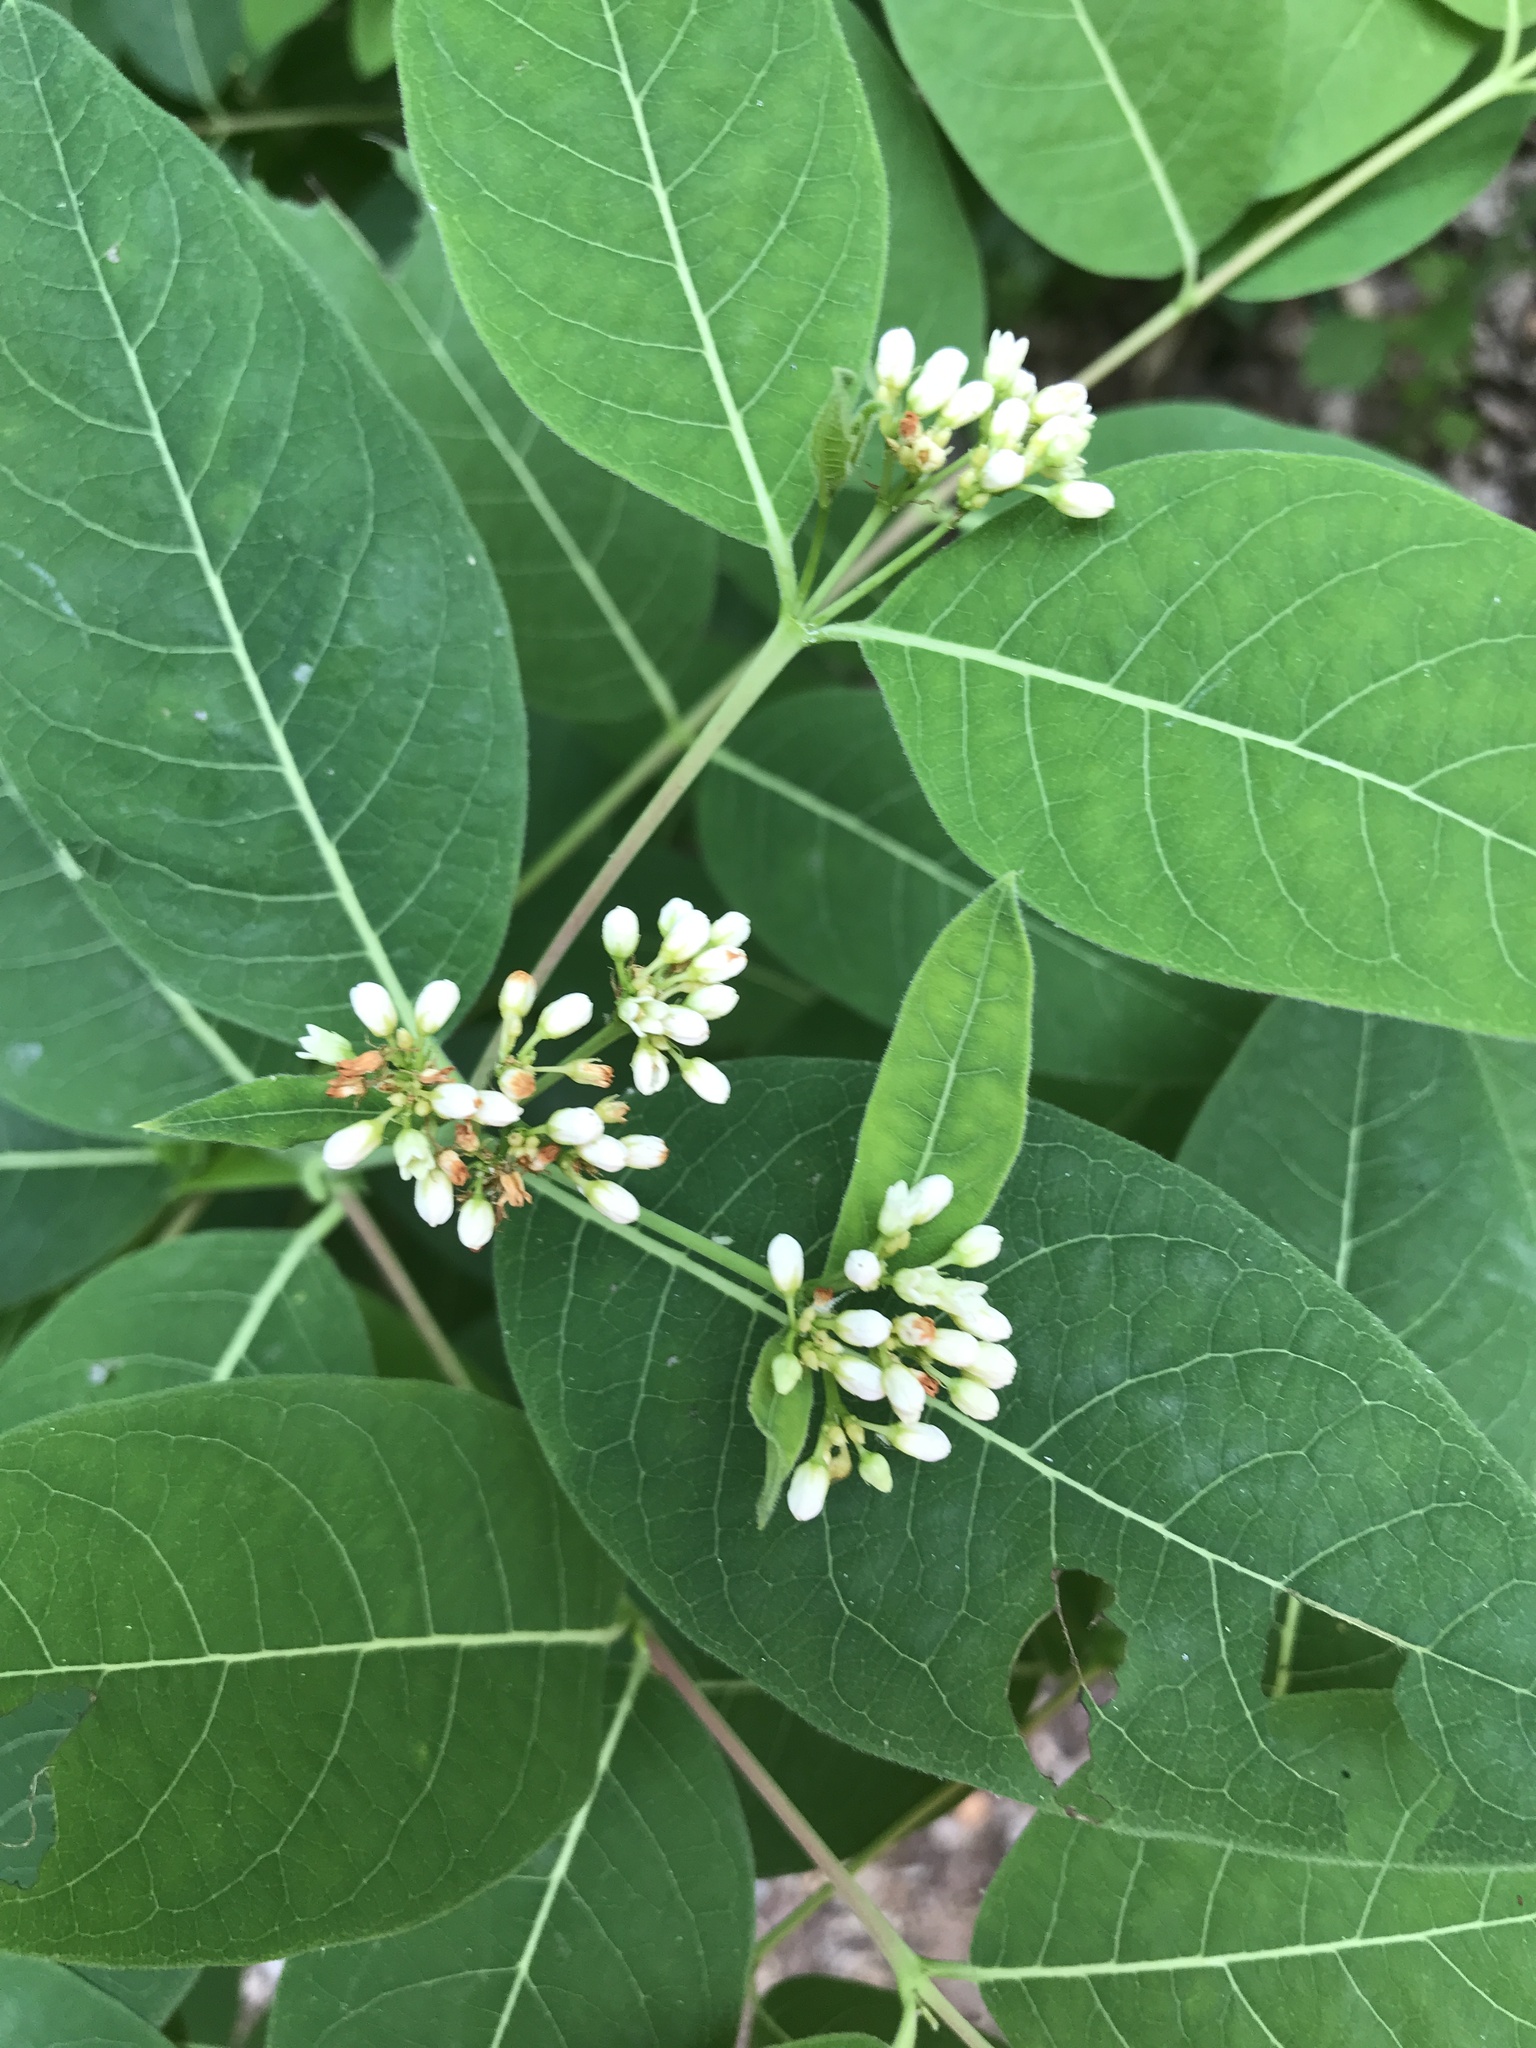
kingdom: Plantae
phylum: Tracheophyta
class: Magnoliopsida
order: Gentianales
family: Apocynaceae
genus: Apocynum
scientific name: Apocynum cannabinum
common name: Hemp dogbane
